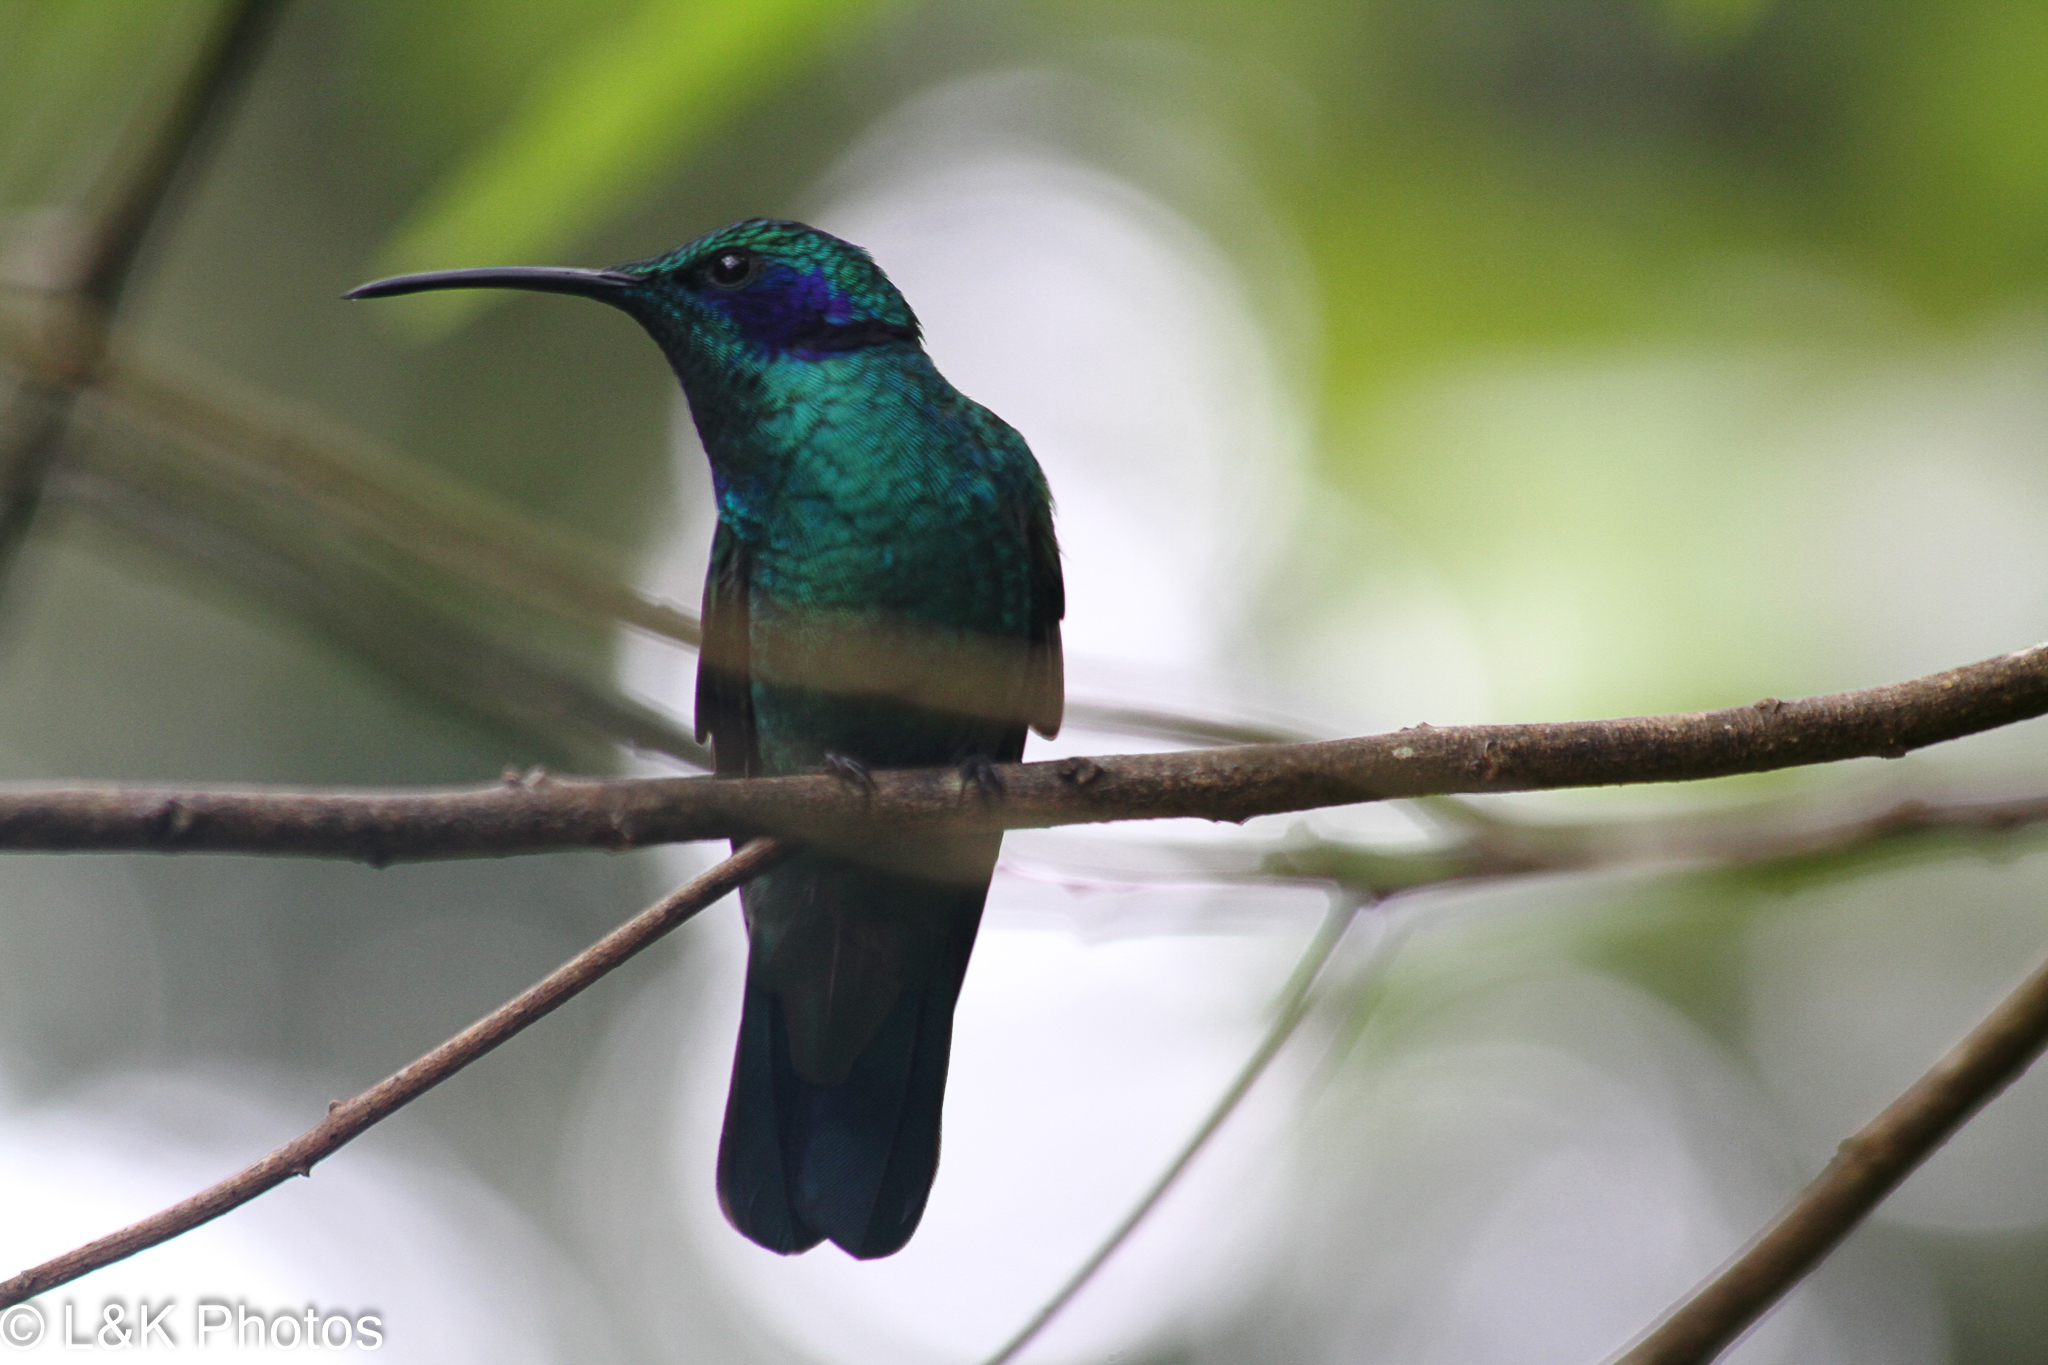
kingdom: Animalia
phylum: Chordata
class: Aves
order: Apodiformes
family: Trochilidae
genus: Colibri
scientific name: Colibri cyanotus
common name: Lesser violetear
